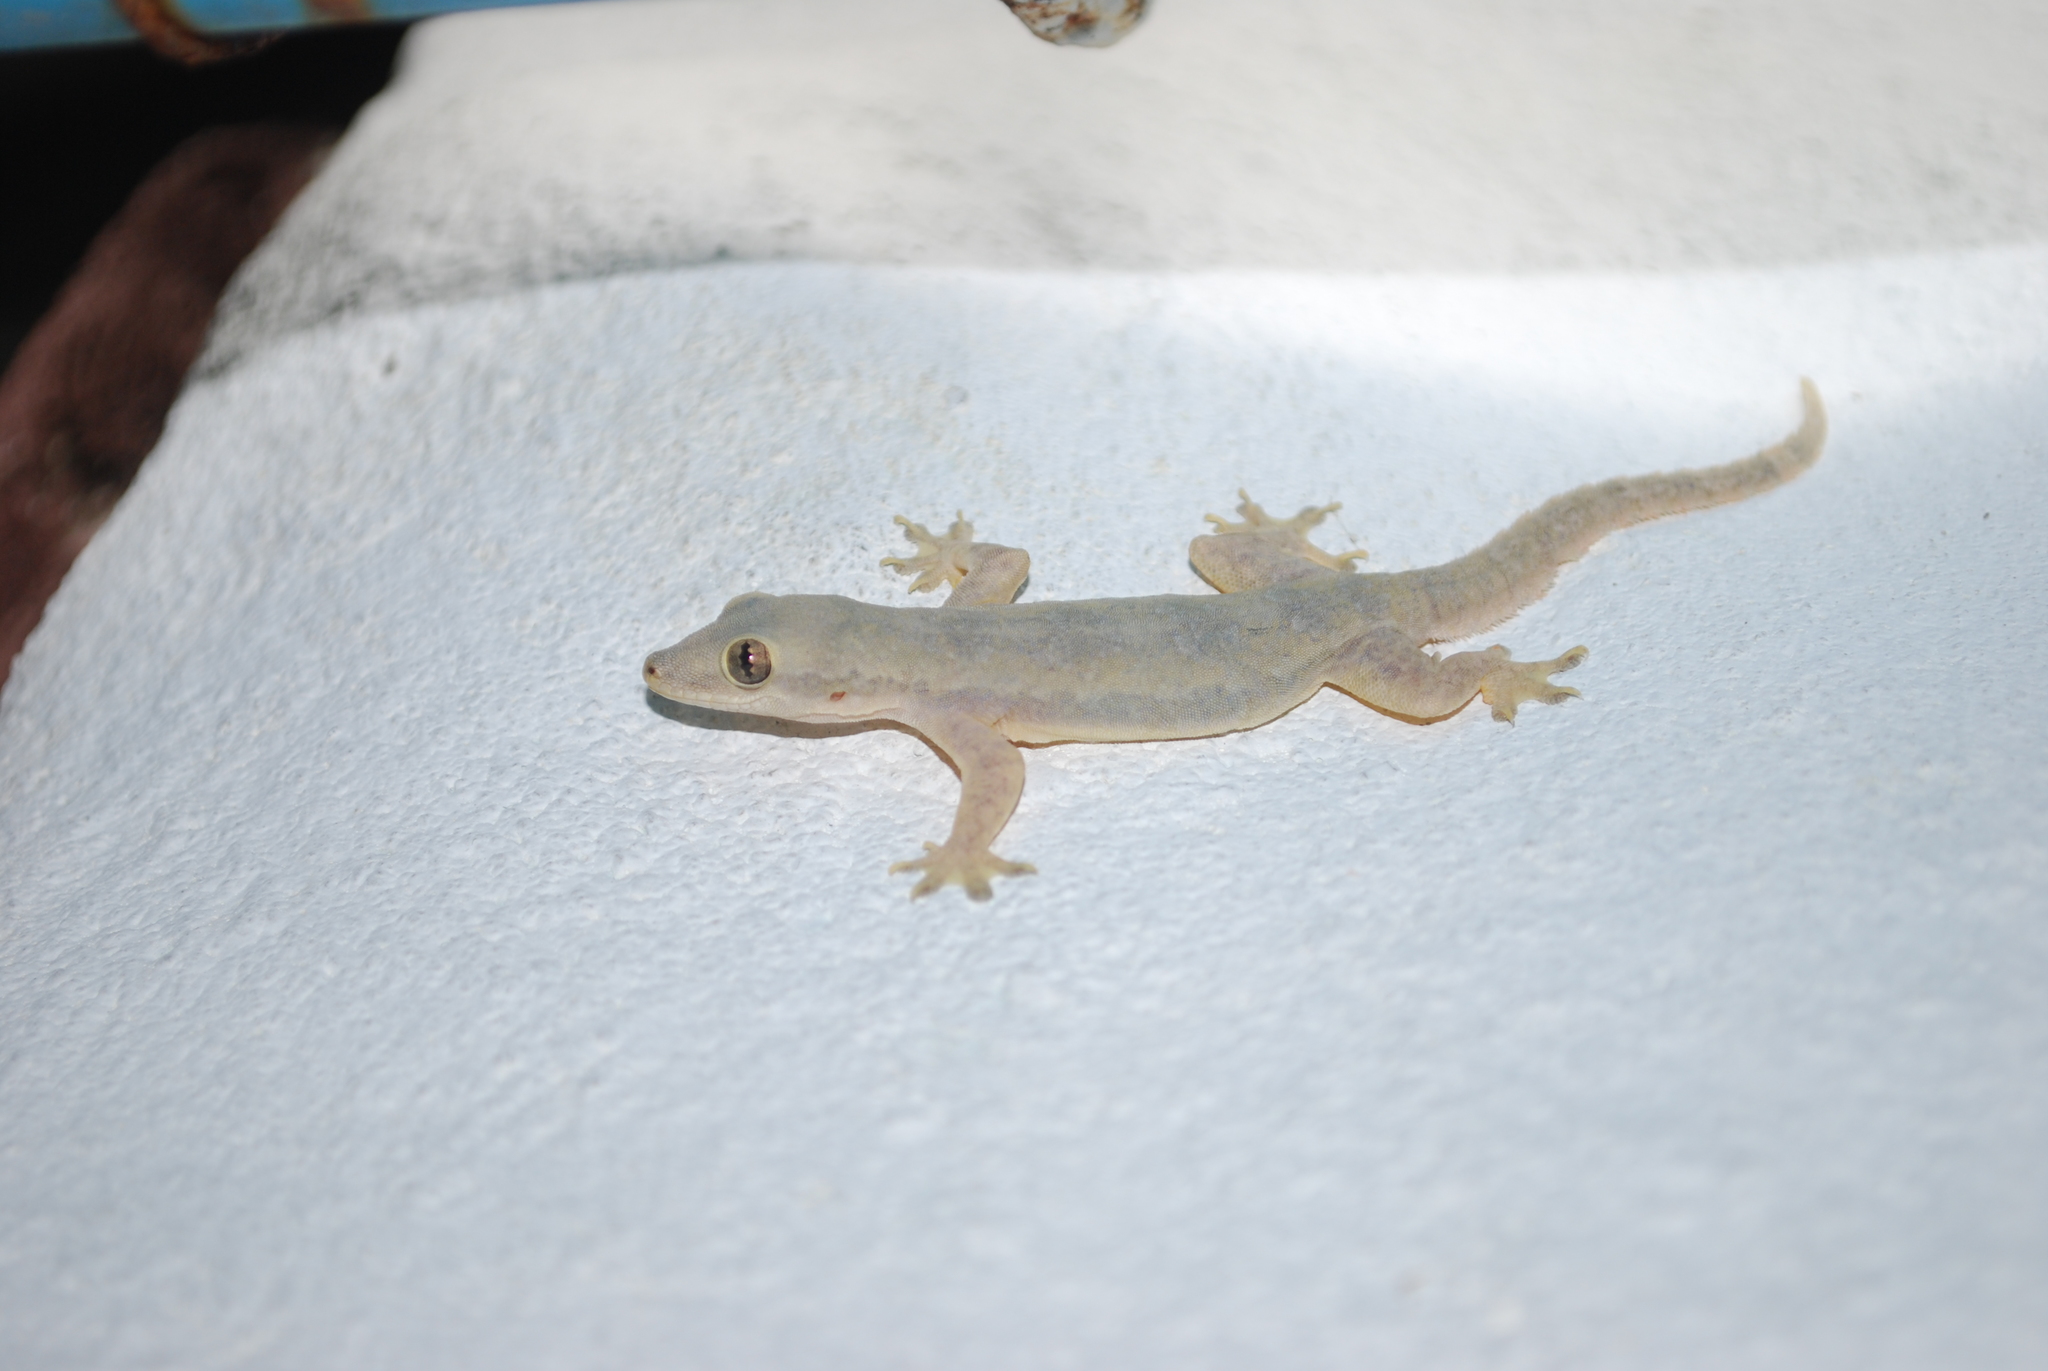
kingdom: Animalia
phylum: Chordata
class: Squamata
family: Gekkonidae
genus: Hemidactylus
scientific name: Hemidactylus platyurus
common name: Flat-tailed house gecko
